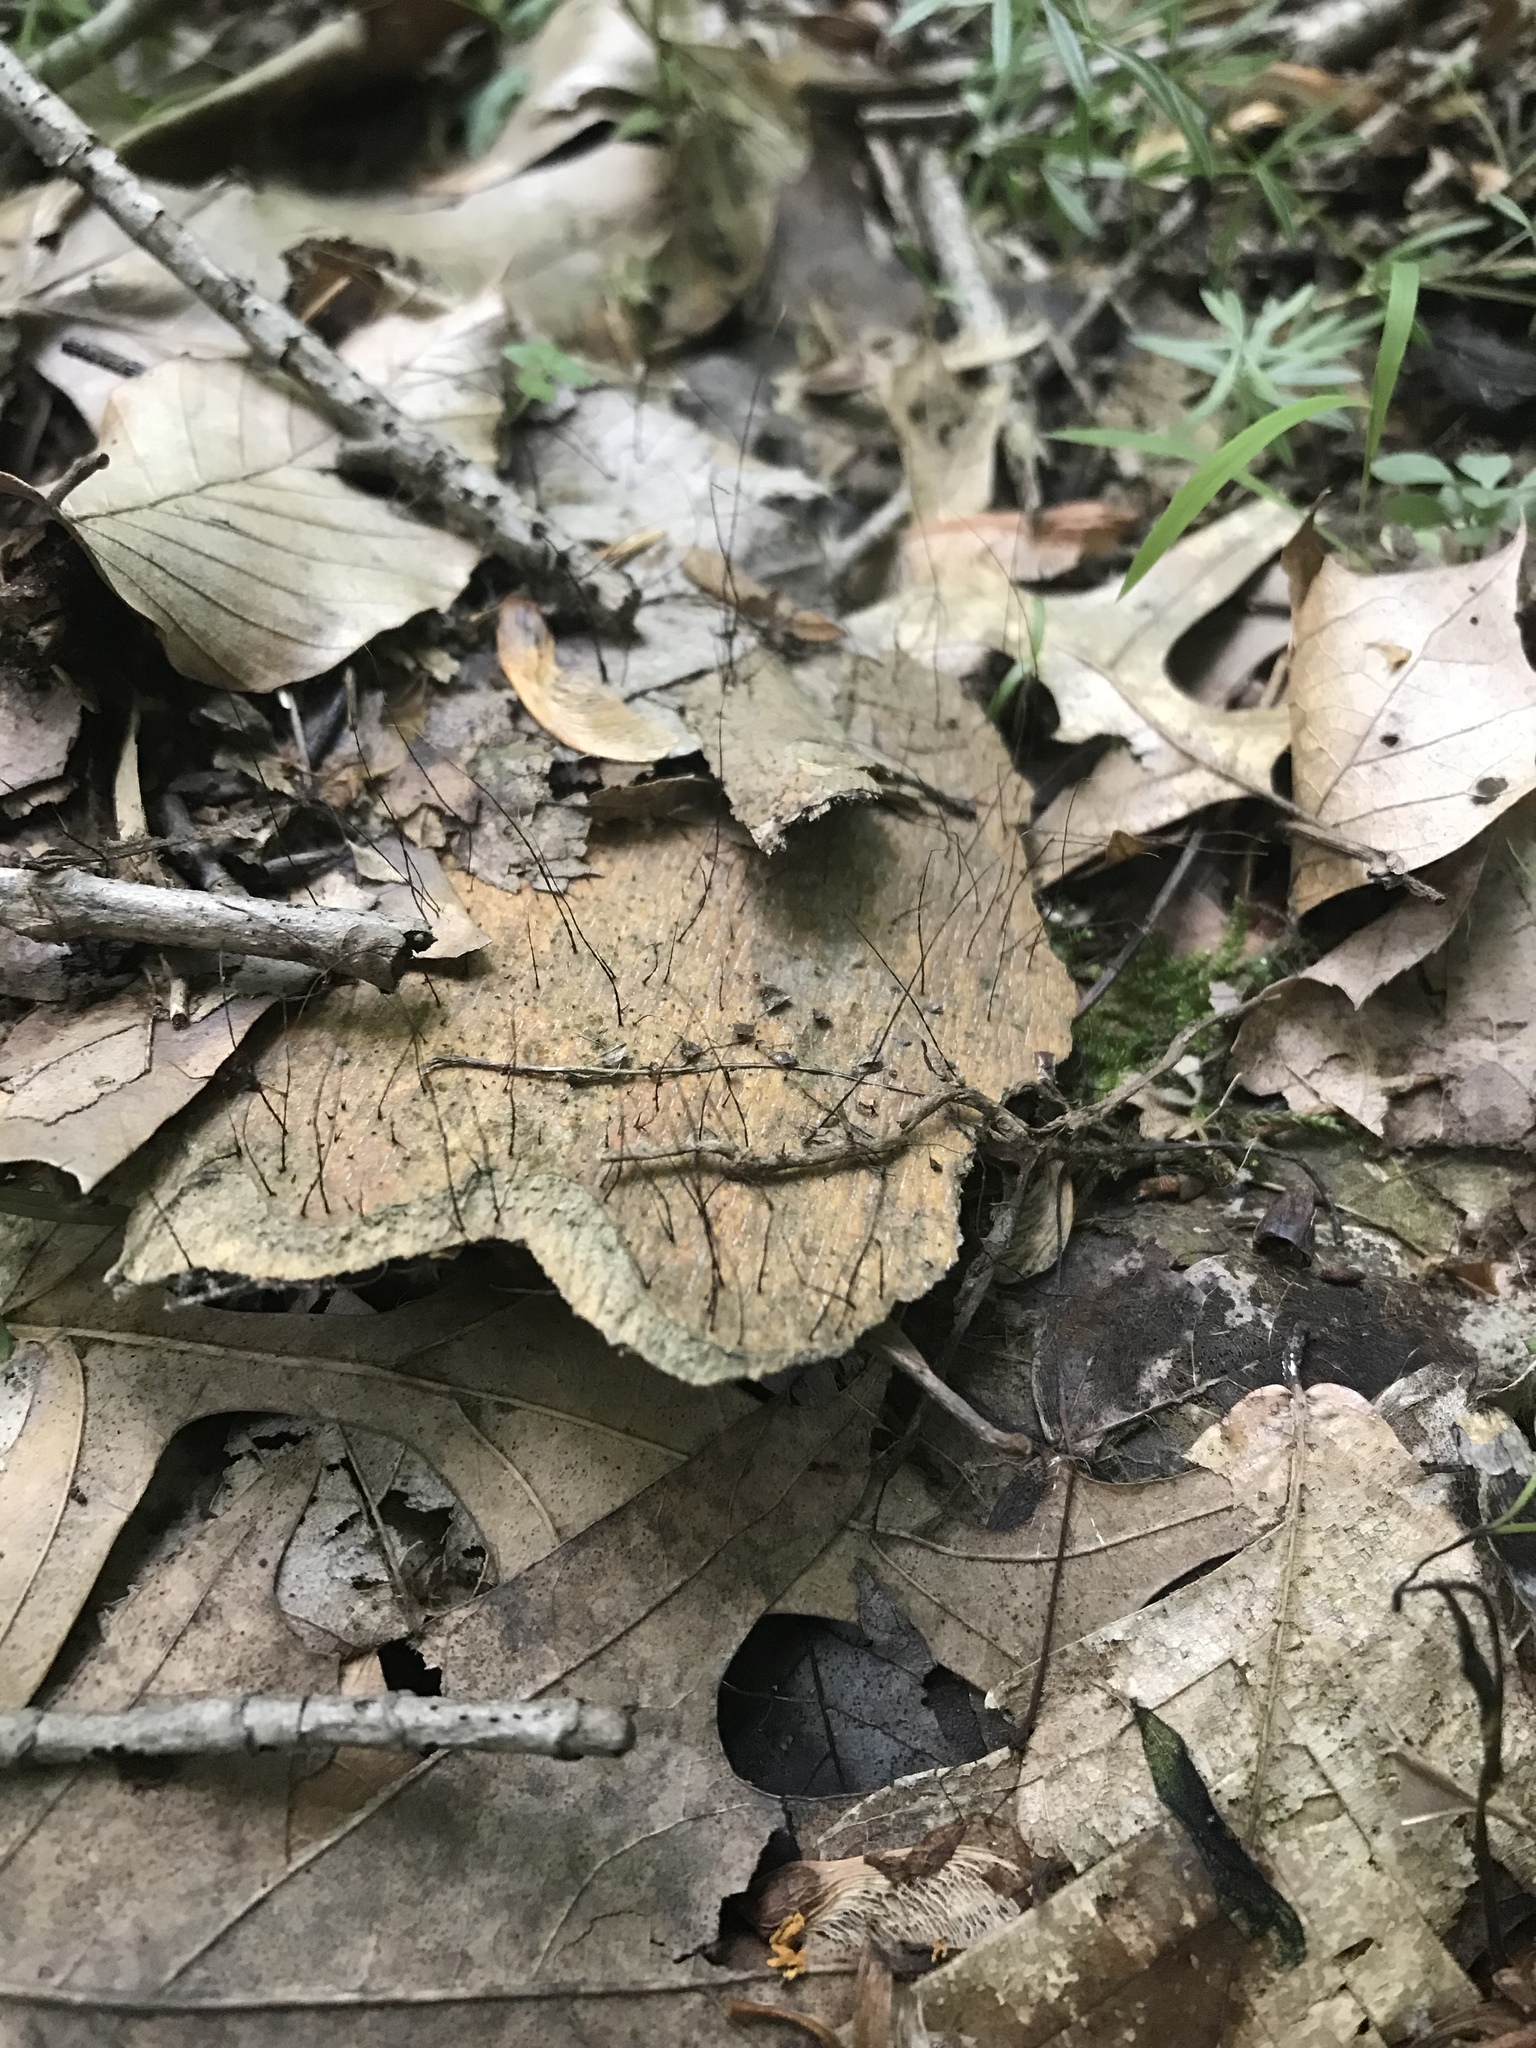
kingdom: Fungi
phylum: Ascomycota
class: Sordariomycetes
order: Xylariales
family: Xylariaceae
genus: Xylaria
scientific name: Xylaria filiformis
